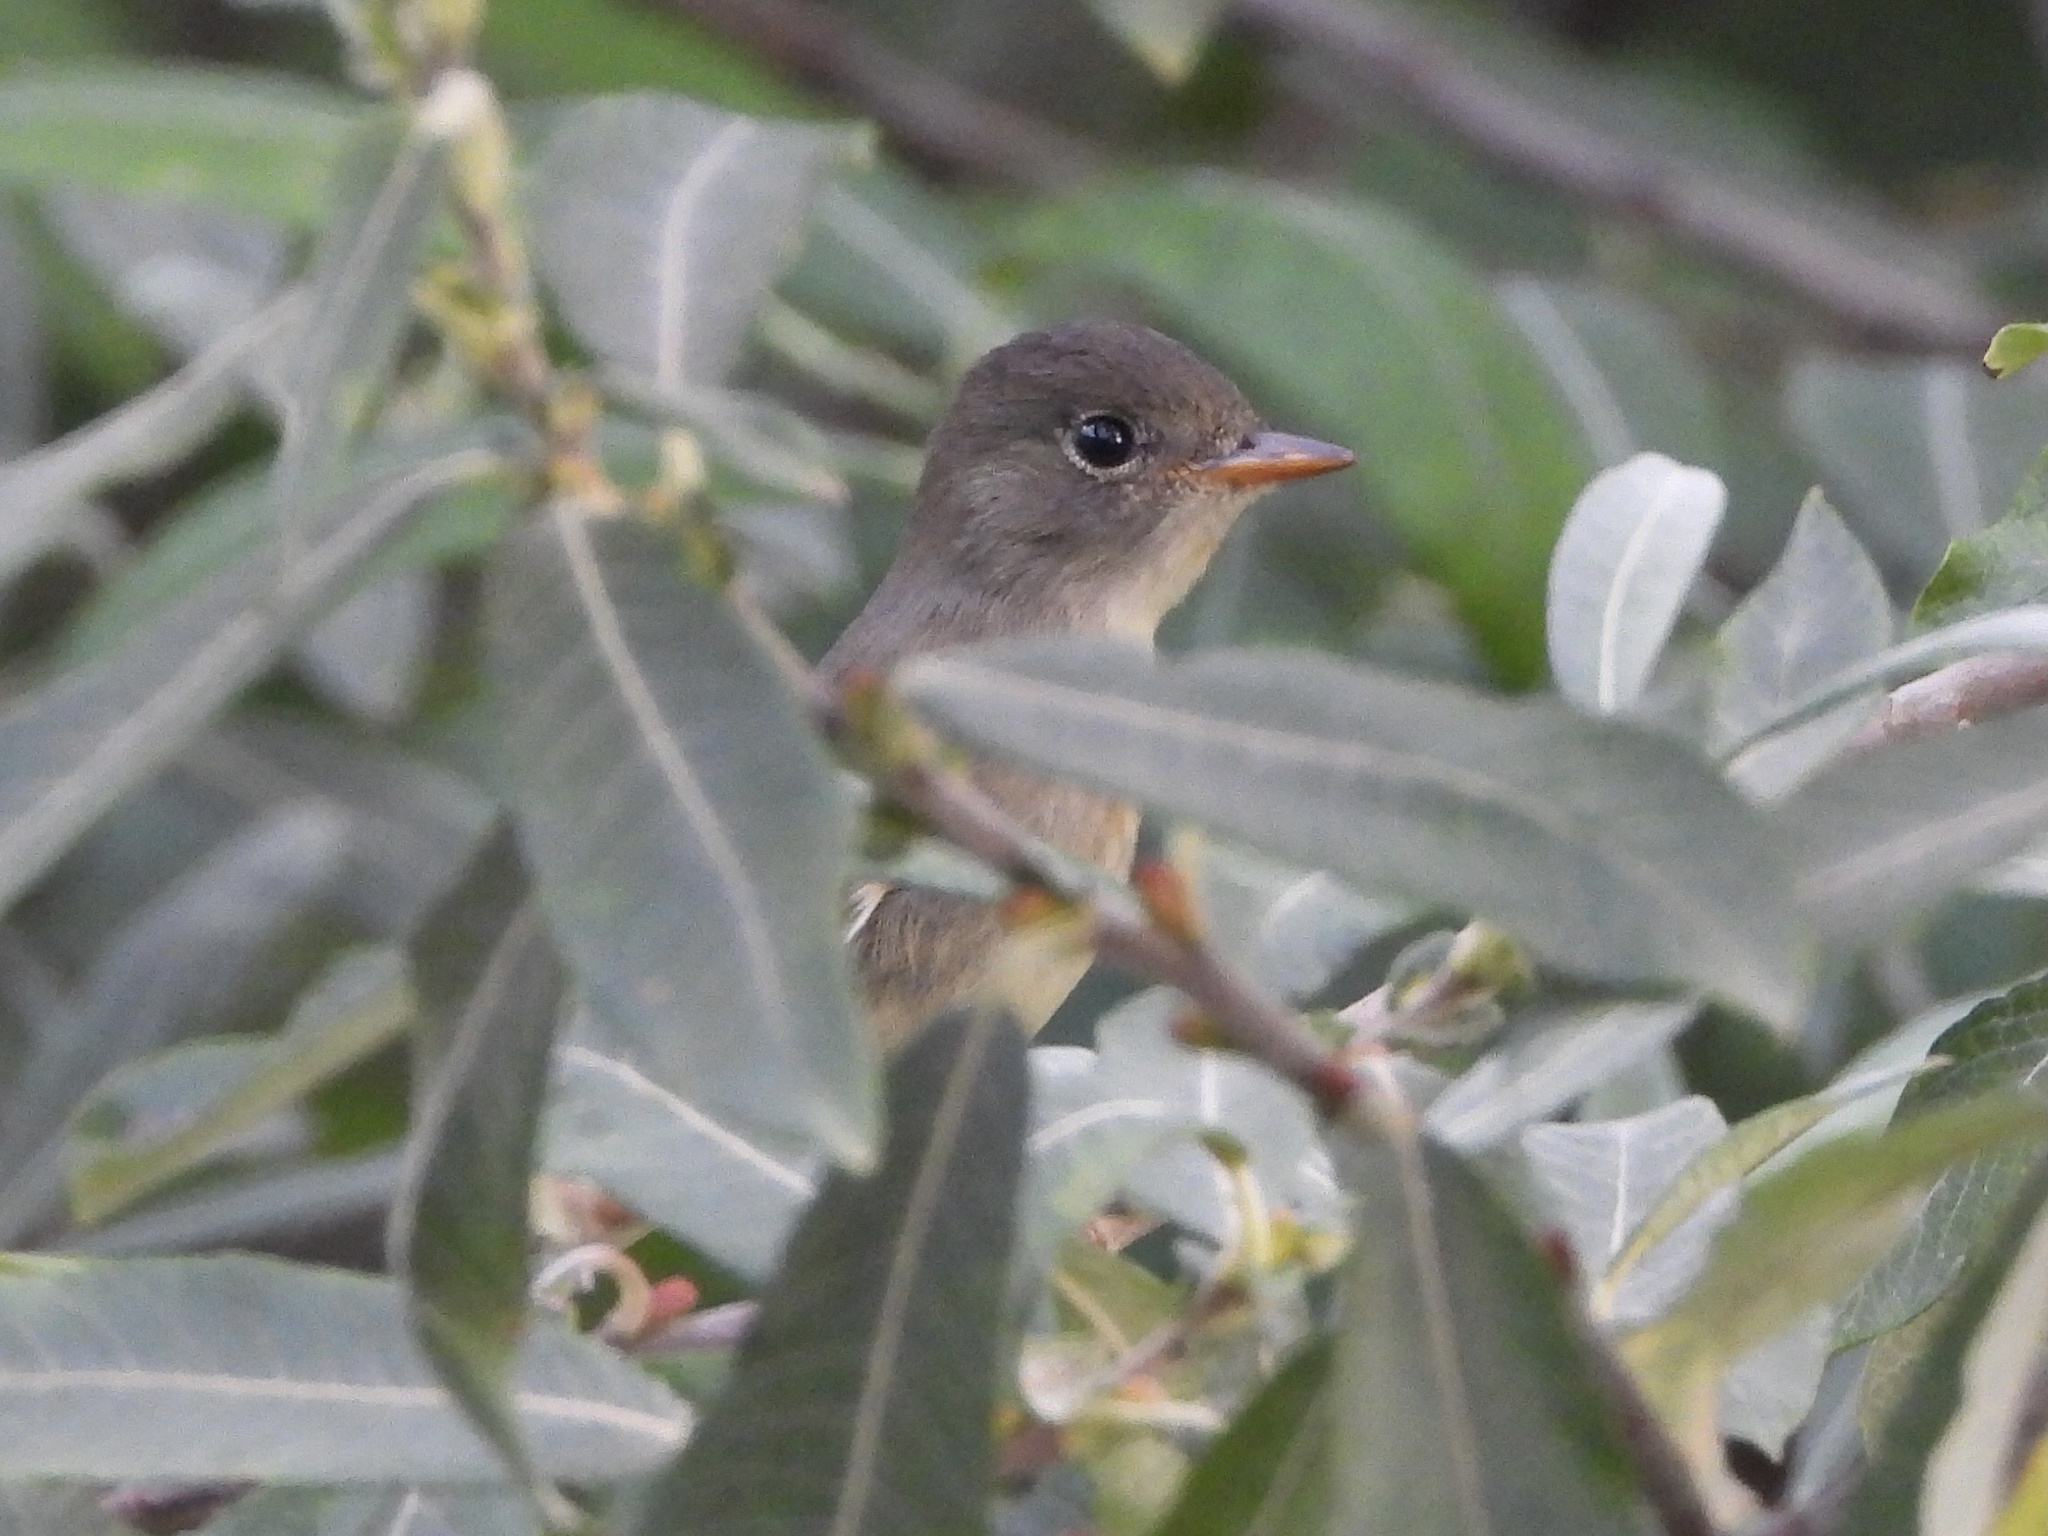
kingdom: Animalia
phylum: Chordata
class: Aves
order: Passeriformes
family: Tyrannidae
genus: Empidonax
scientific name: Empidonax traillii
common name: Willow flycatcher
